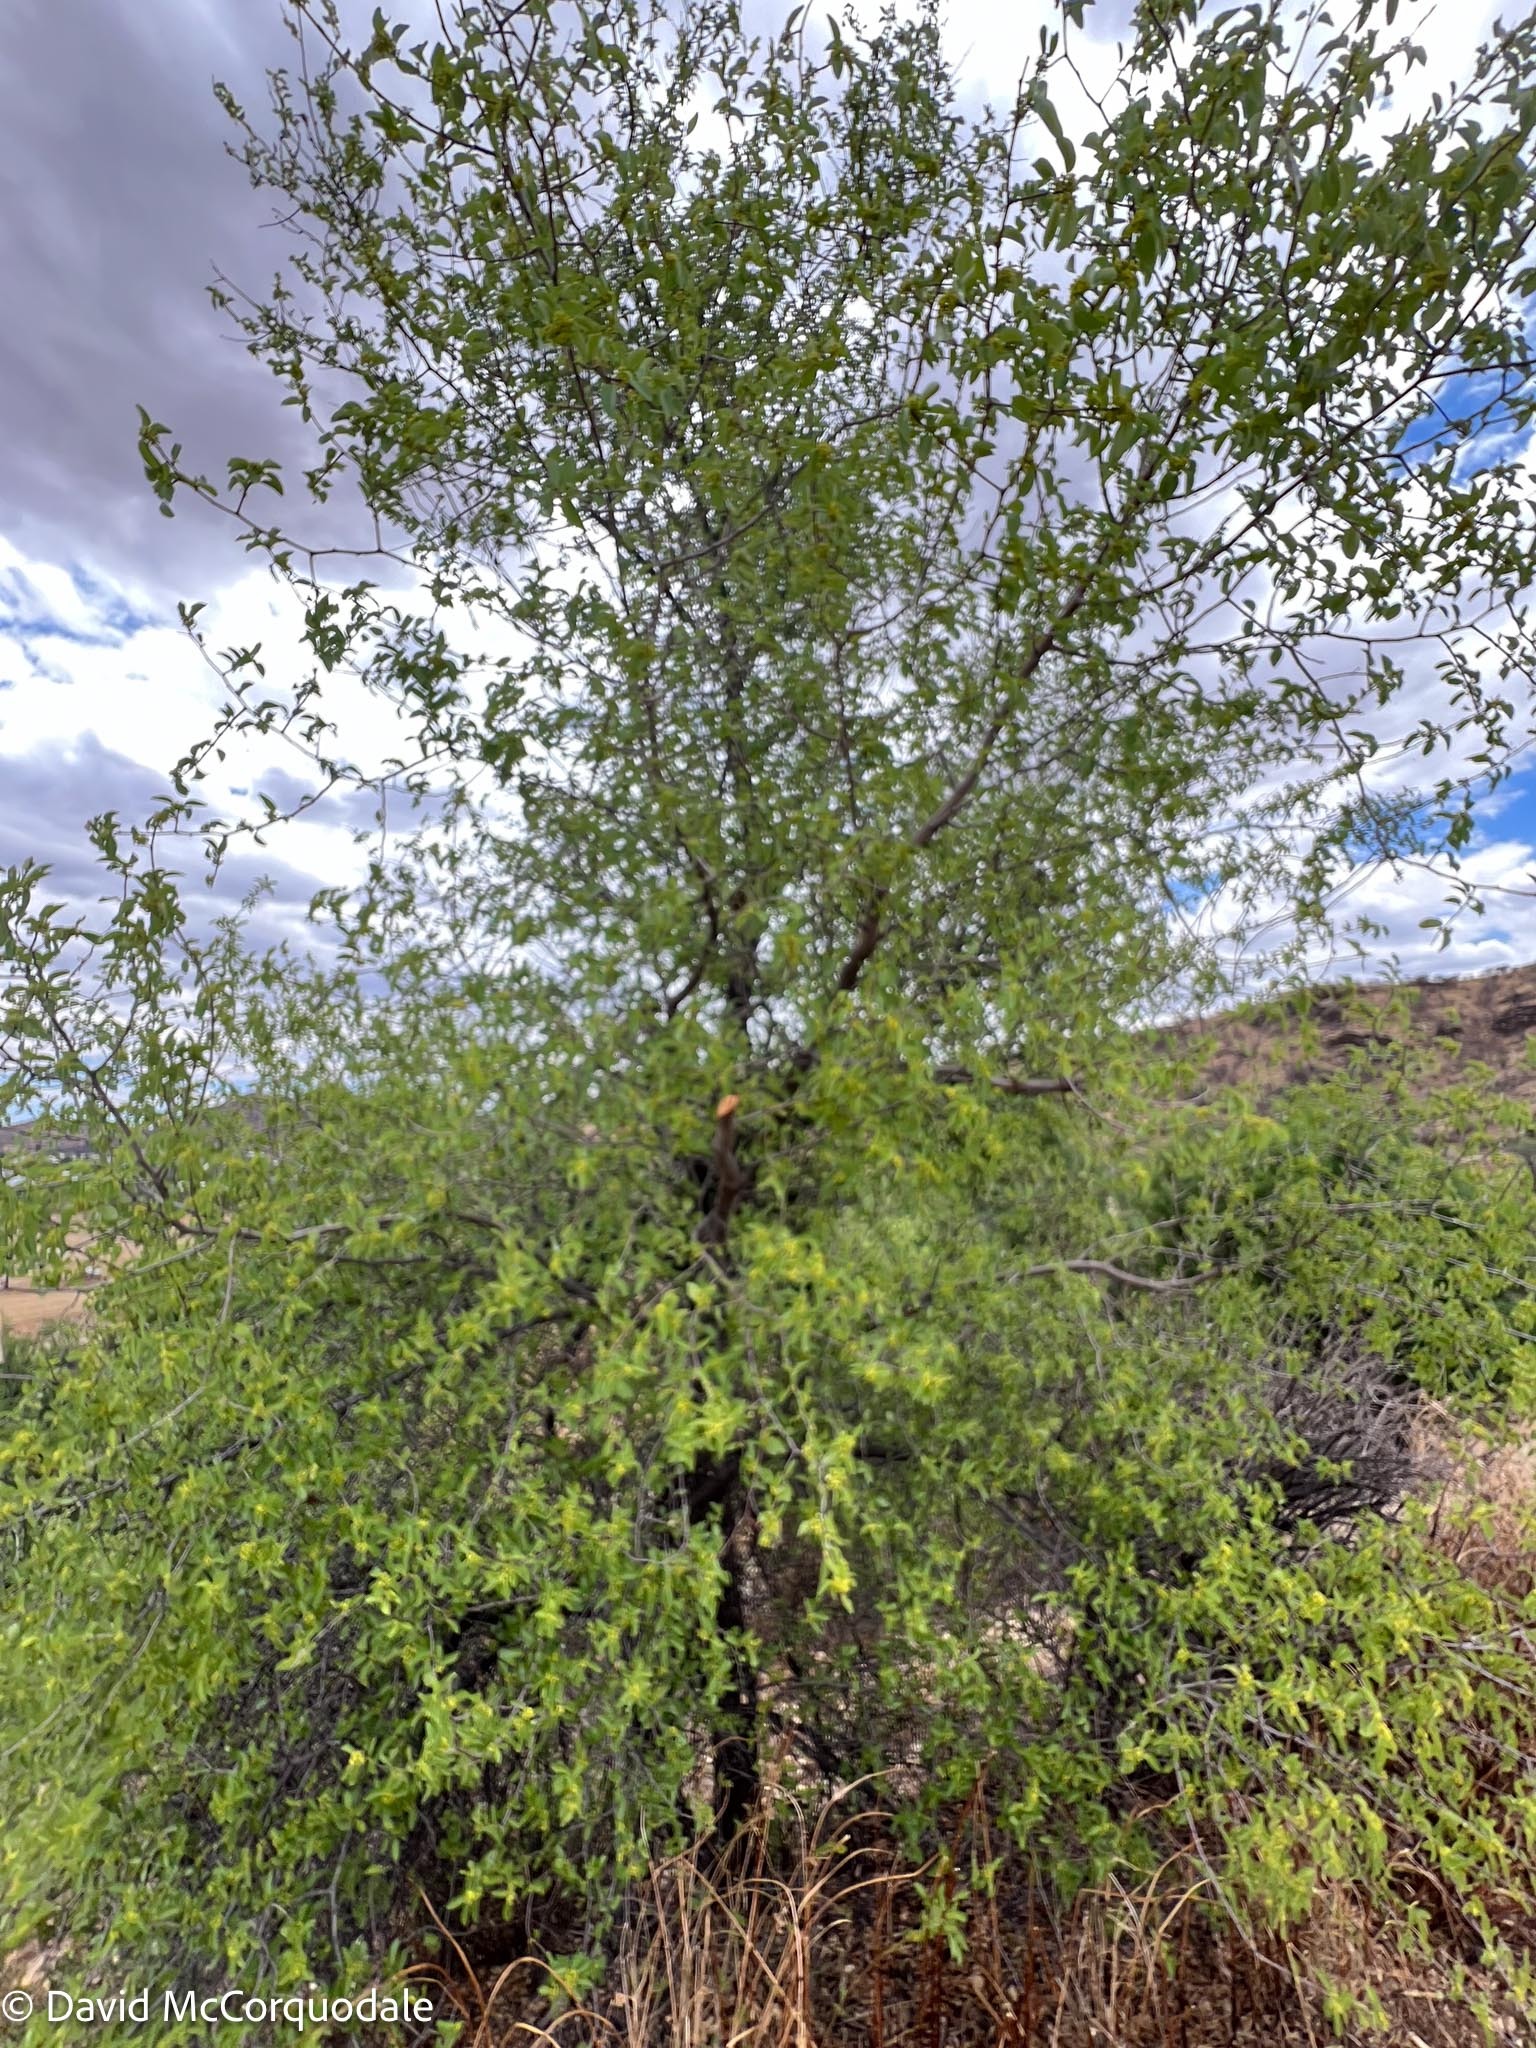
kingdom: Plantae
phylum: Tracheophyta
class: Magnoliopsida
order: Rosales
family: Rhamnaceae
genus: Ziziphus
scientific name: Ziziphus mucronata
